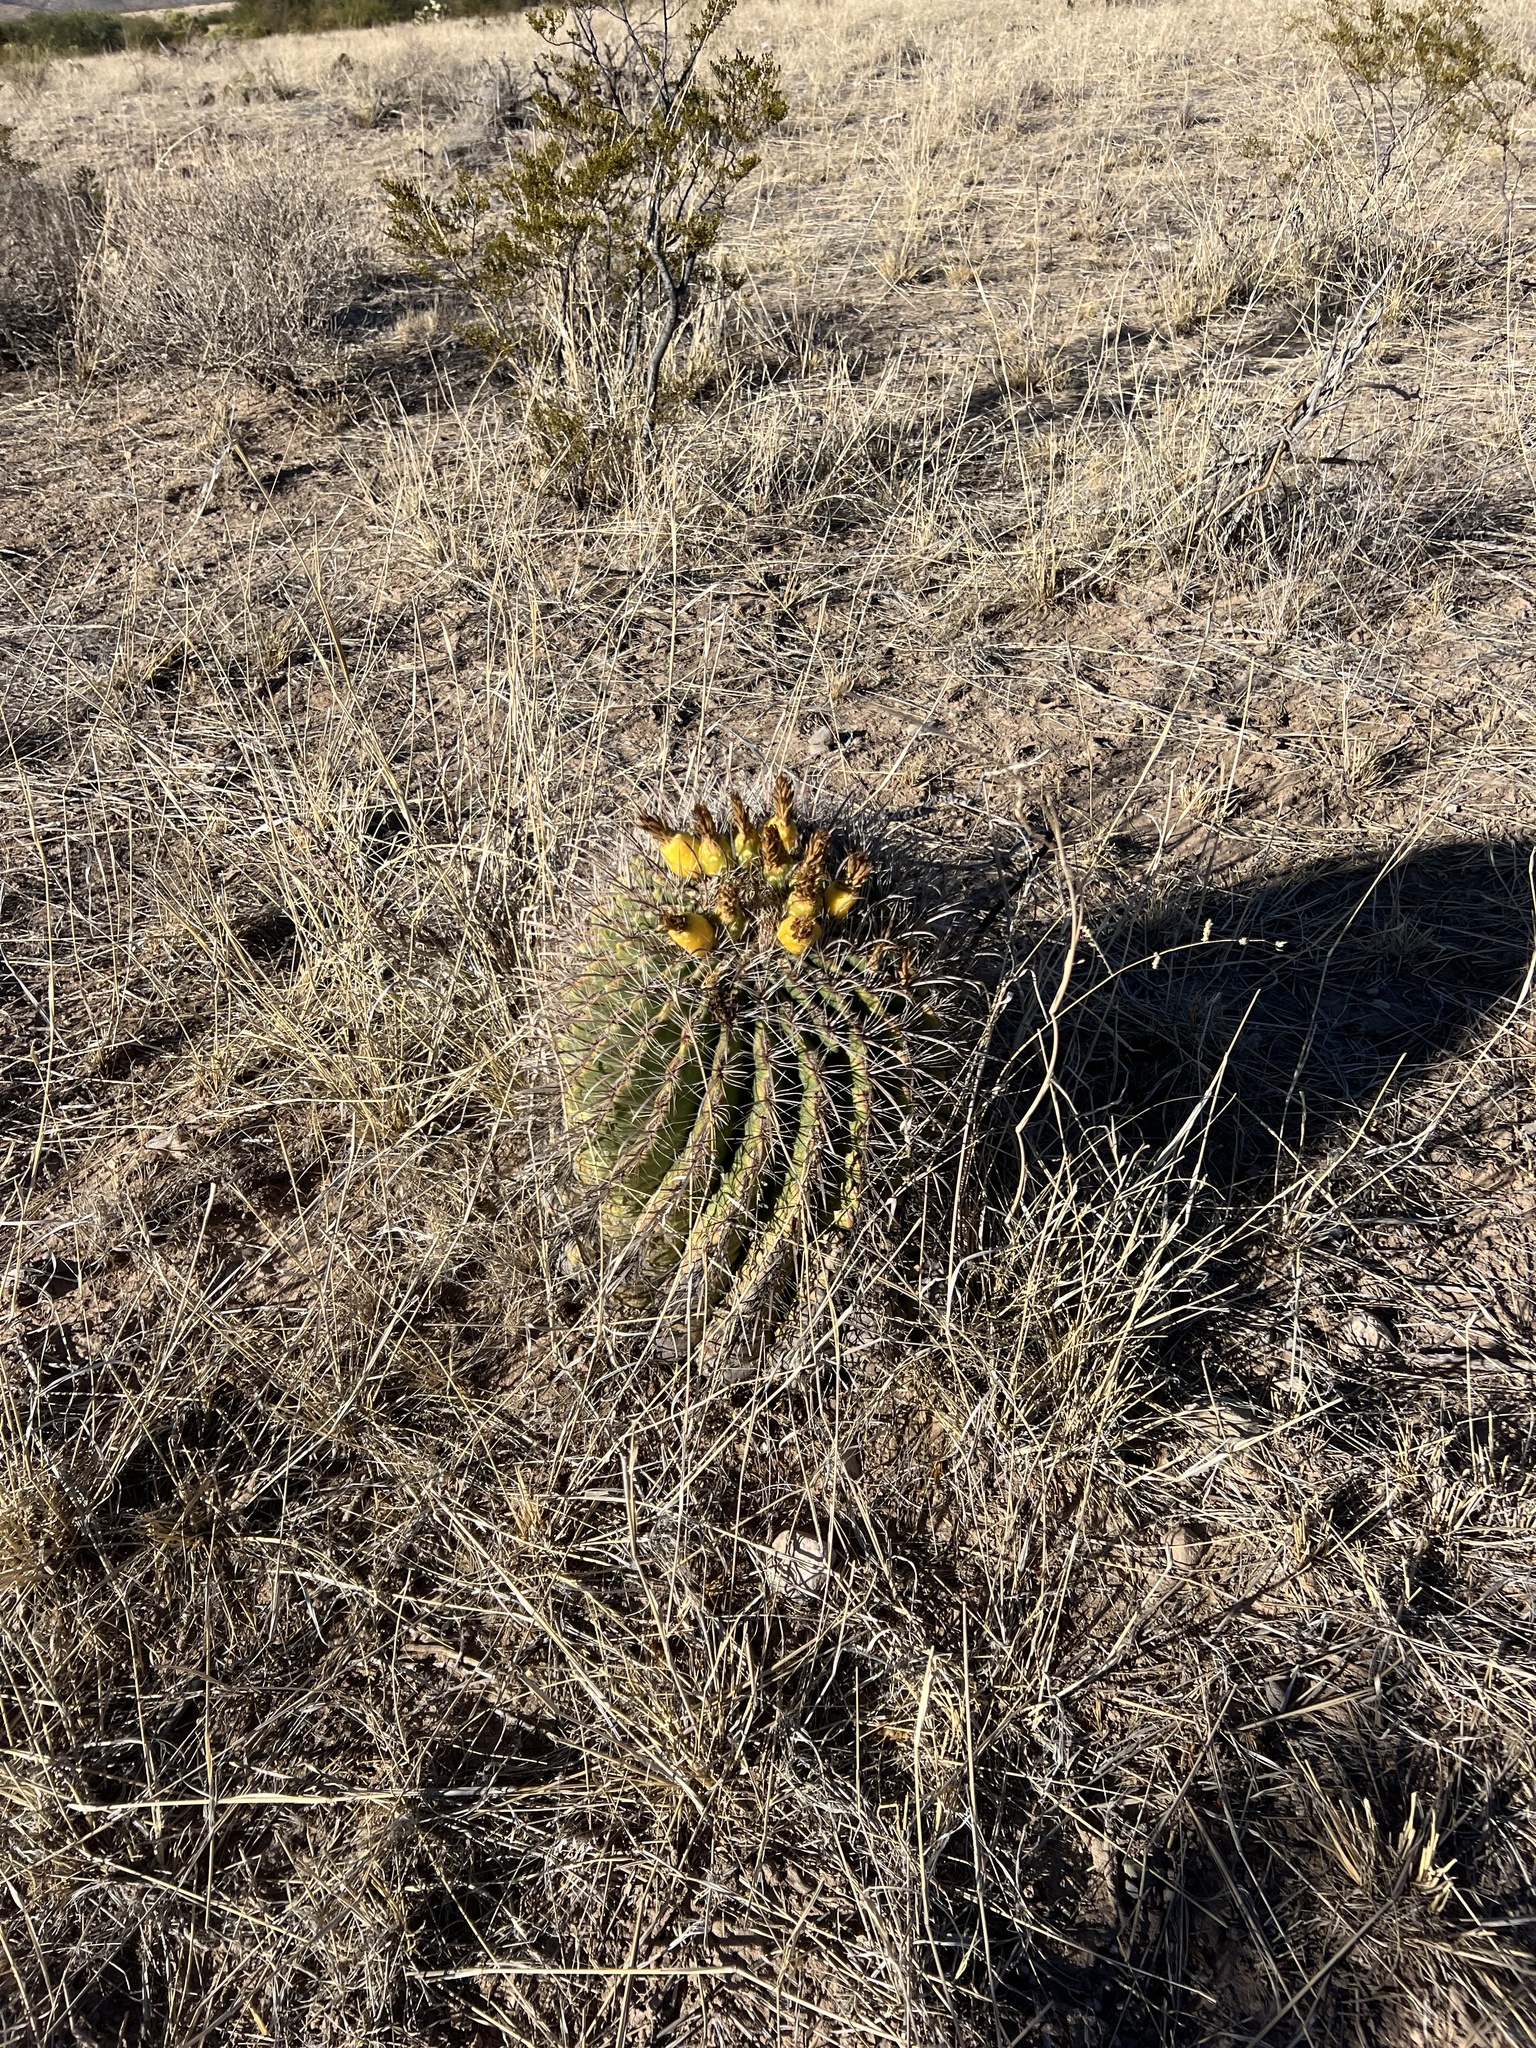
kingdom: Plantae
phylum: Tracheophyta
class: Magnoliopsida
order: Caryophyllales
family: Cactaceae
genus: Ferocactus
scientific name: Ferocactus wislizeni
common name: Candy barrel cactus
